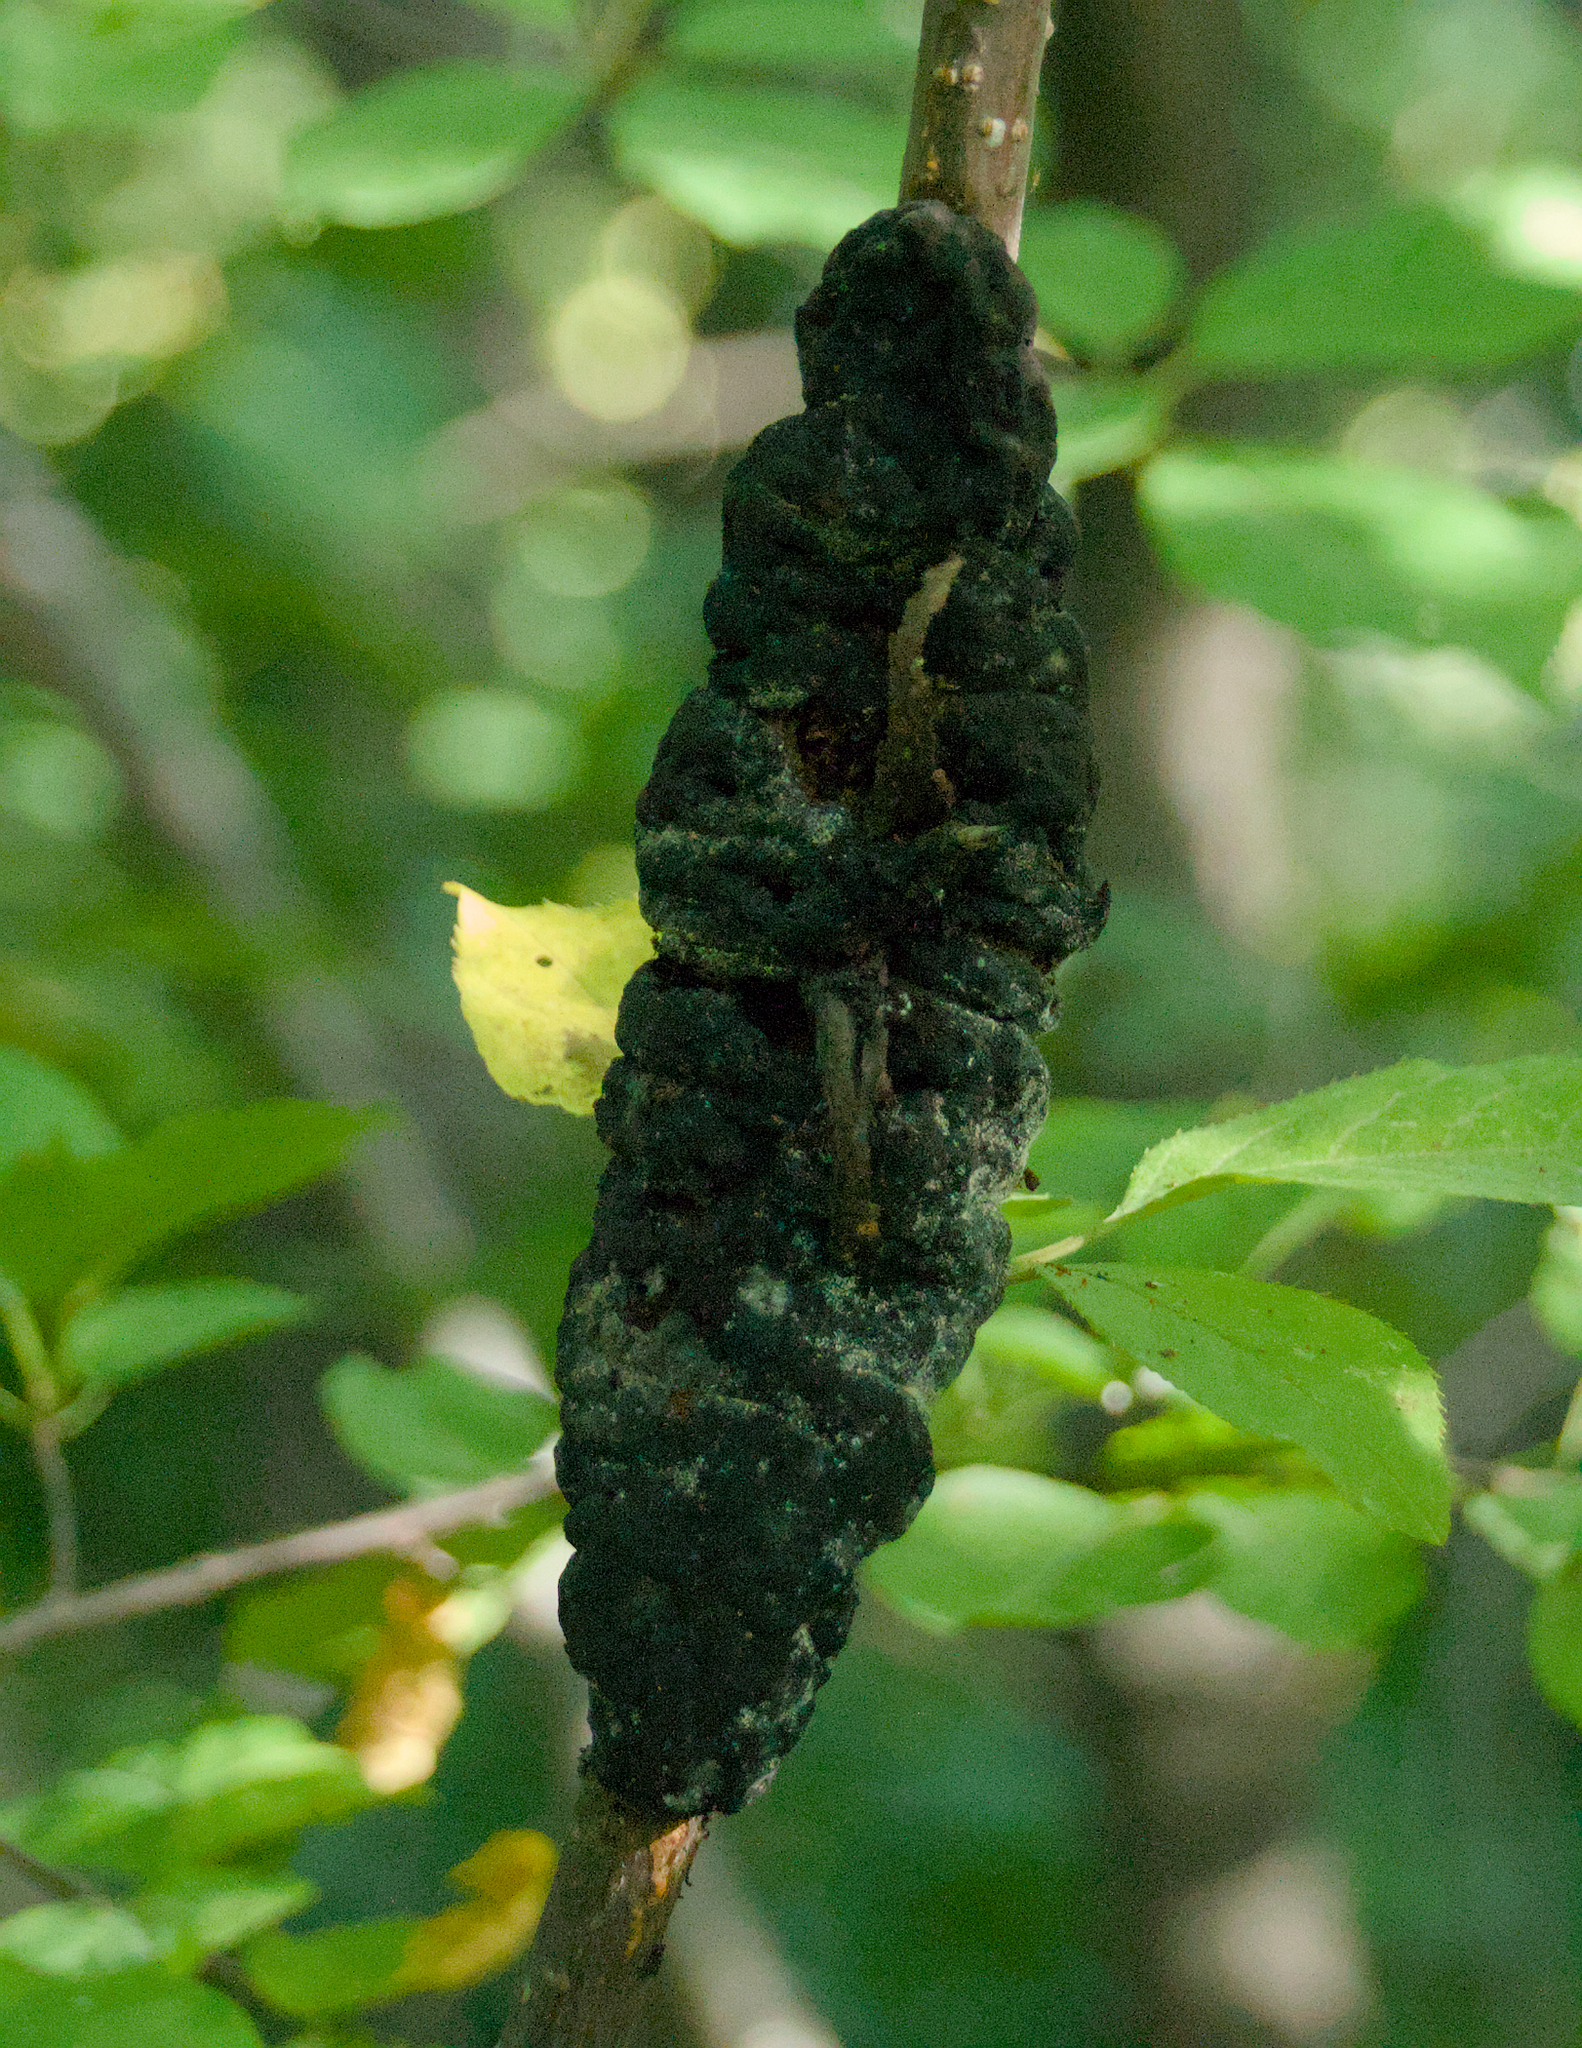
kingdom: Fungi
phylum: Ascomycota
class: Dothideomycetes
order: Venturiales
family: Venturiaceae
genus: Apiosporina
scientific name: Apiosporina morbosa
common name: Black knot
